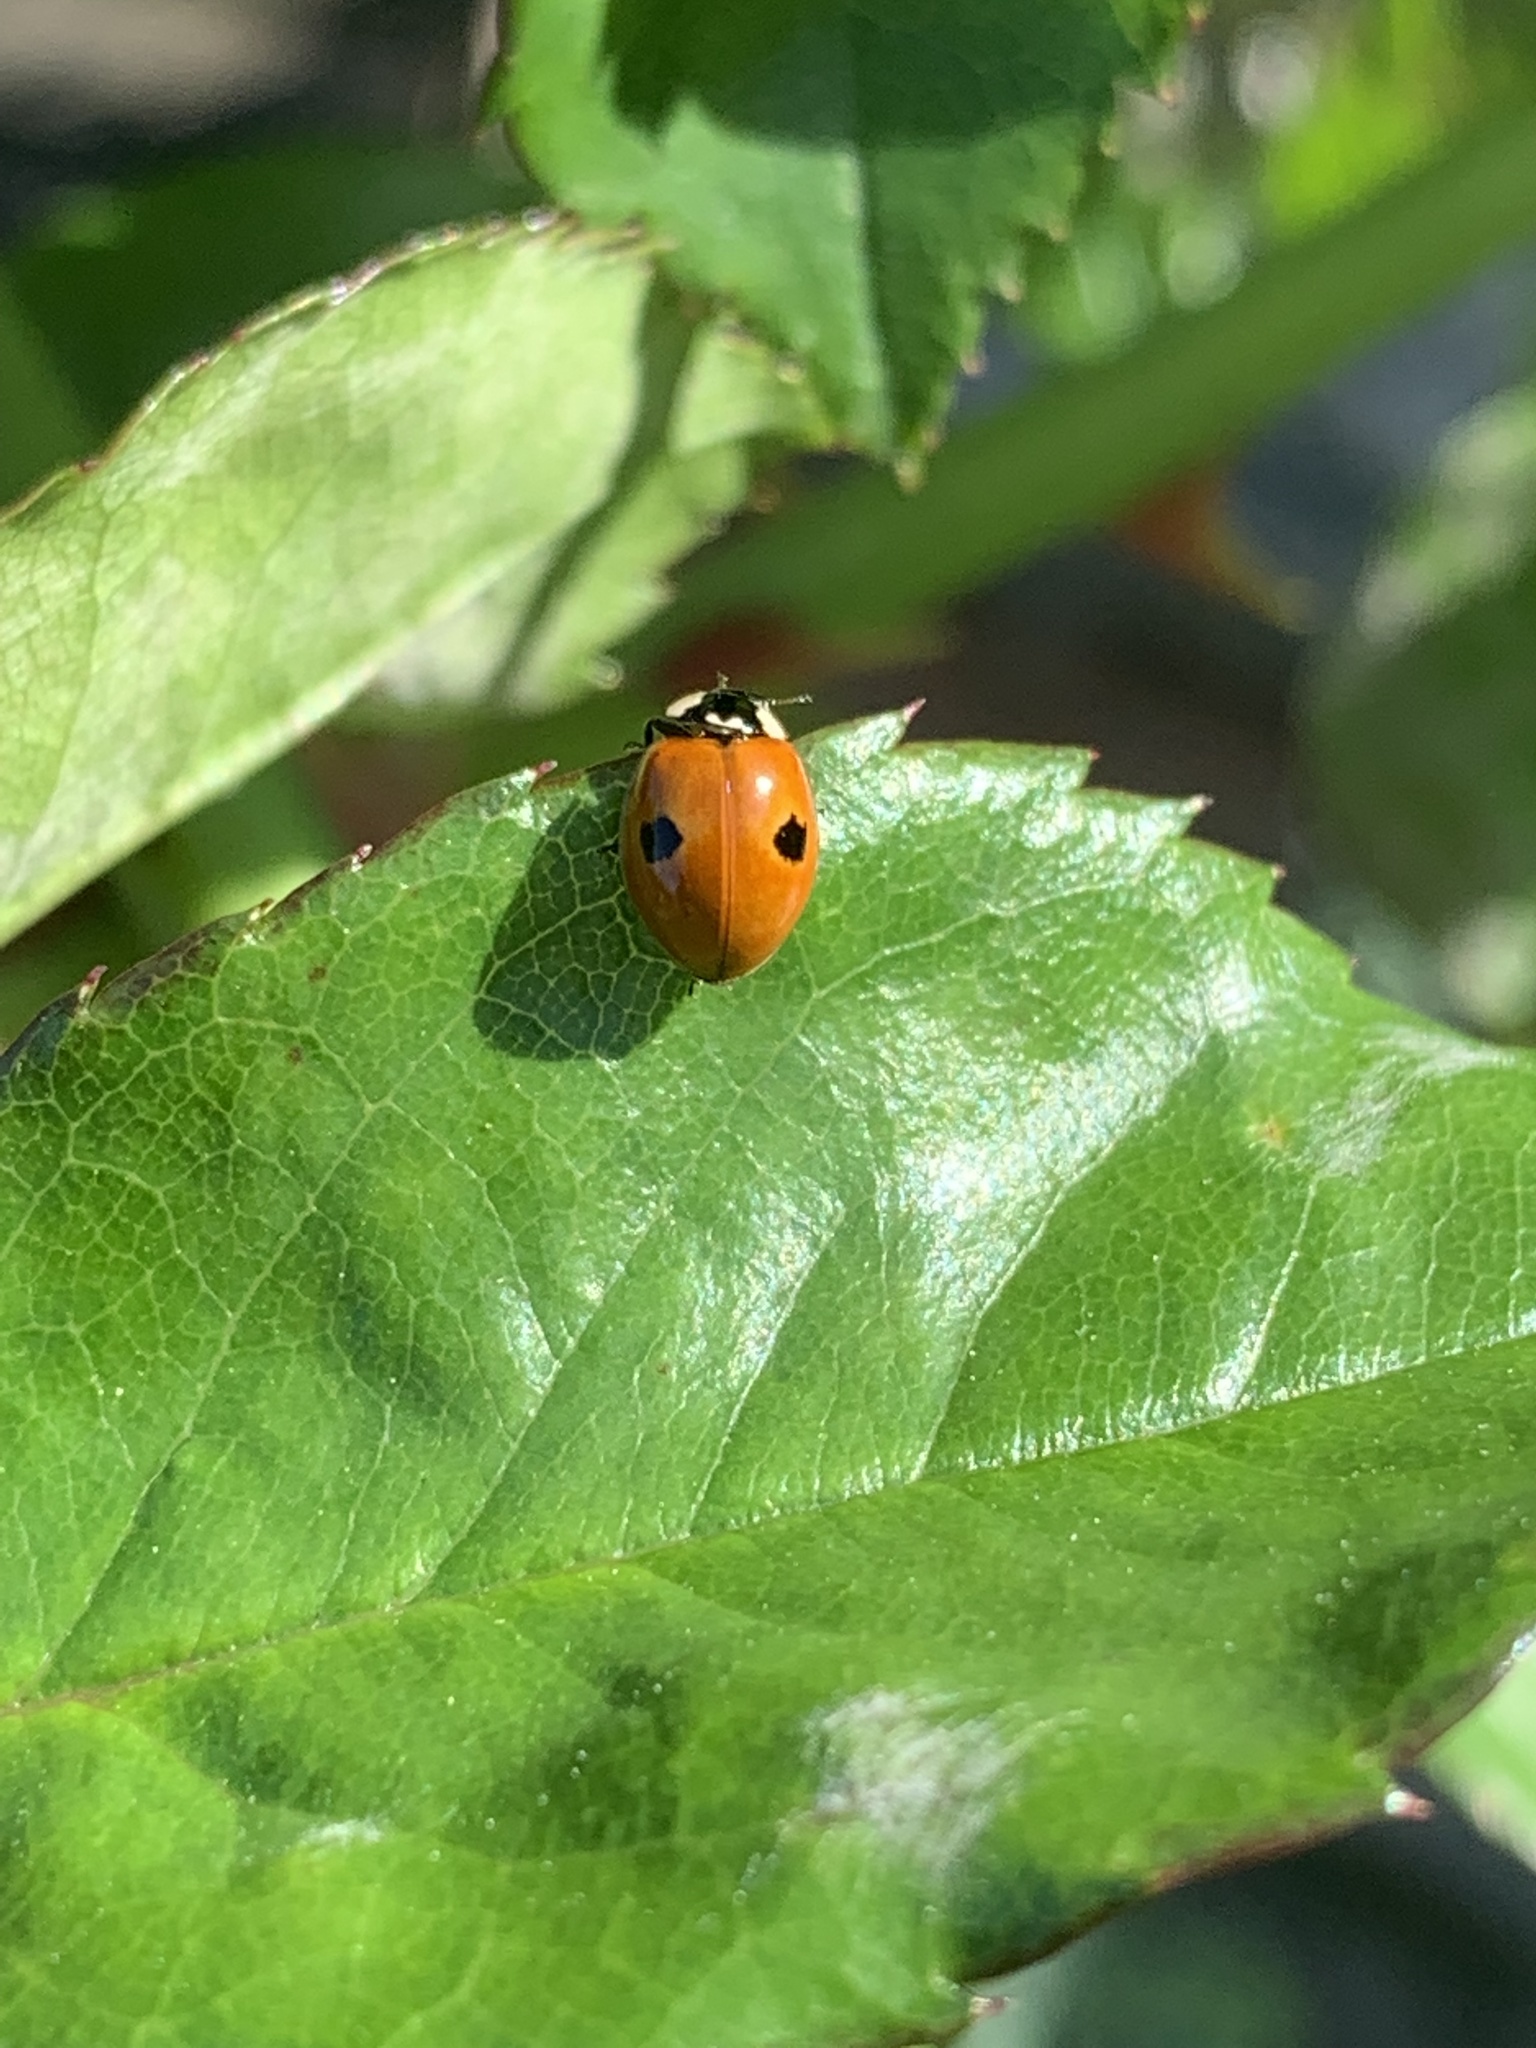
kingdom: Animalia
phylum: Arthropoda
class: Insecta
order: Coleoptera
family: Coccinellidae
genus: Adalia
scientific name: Adalia bipunctata
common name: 2-spot ladybird
